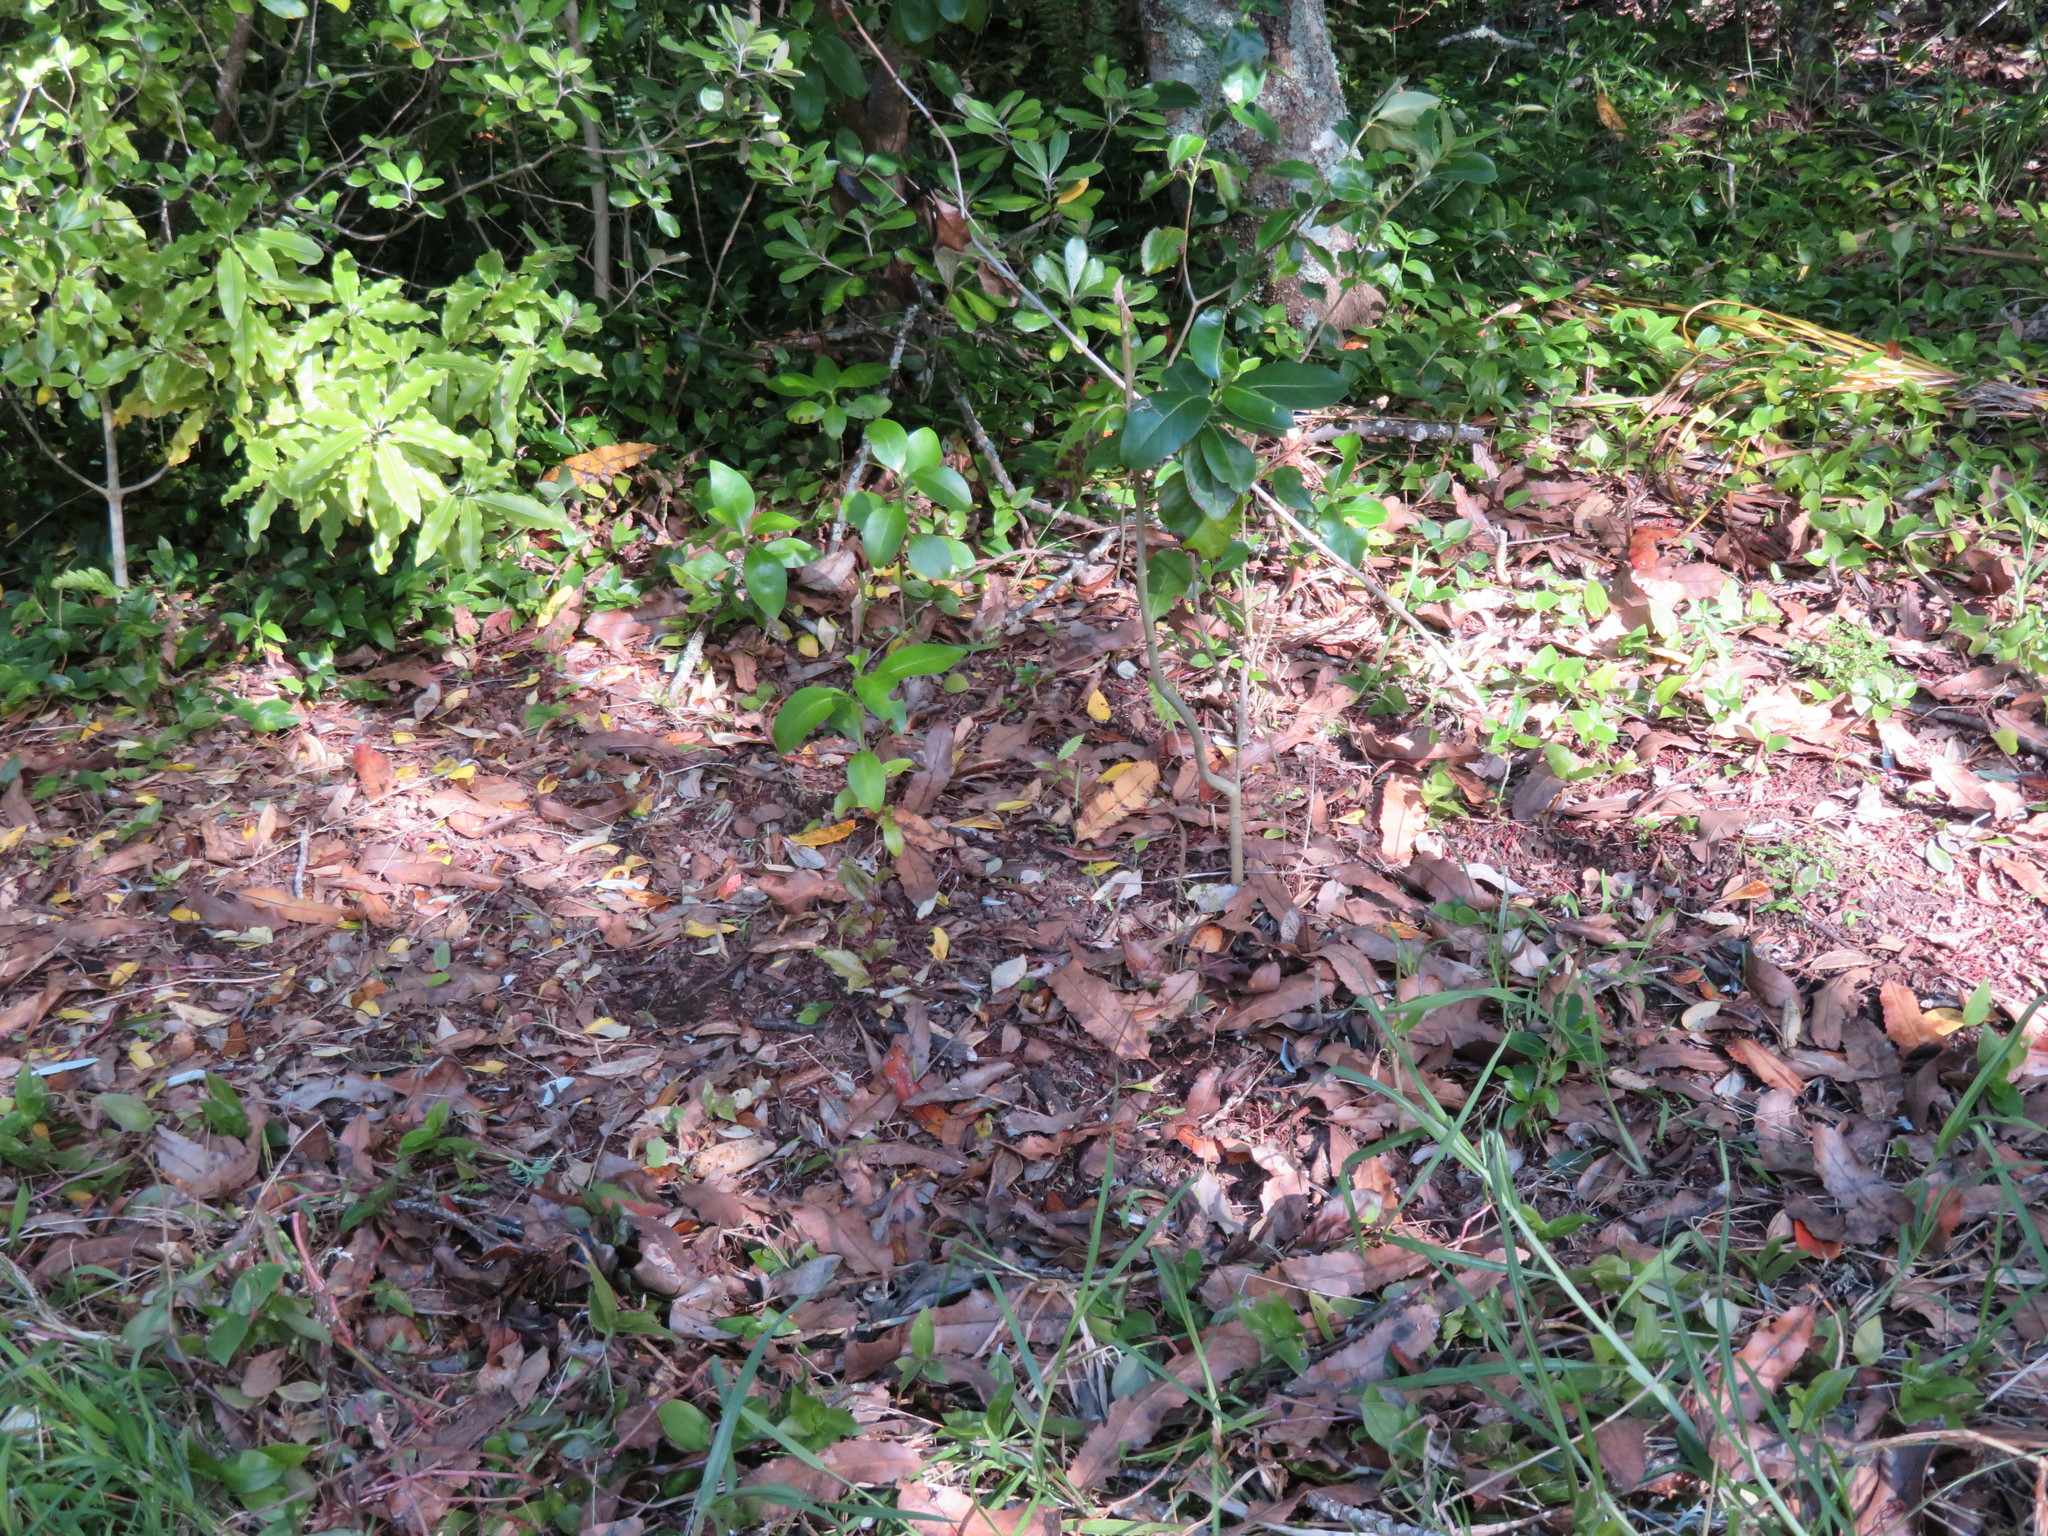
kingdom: Plantae
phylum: Tracheophyta
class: Magnoliopsida
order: Proteales
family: Proteaceae
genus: Knightia
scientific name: Knightia excelsa
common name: New zealand-honeysuckle
